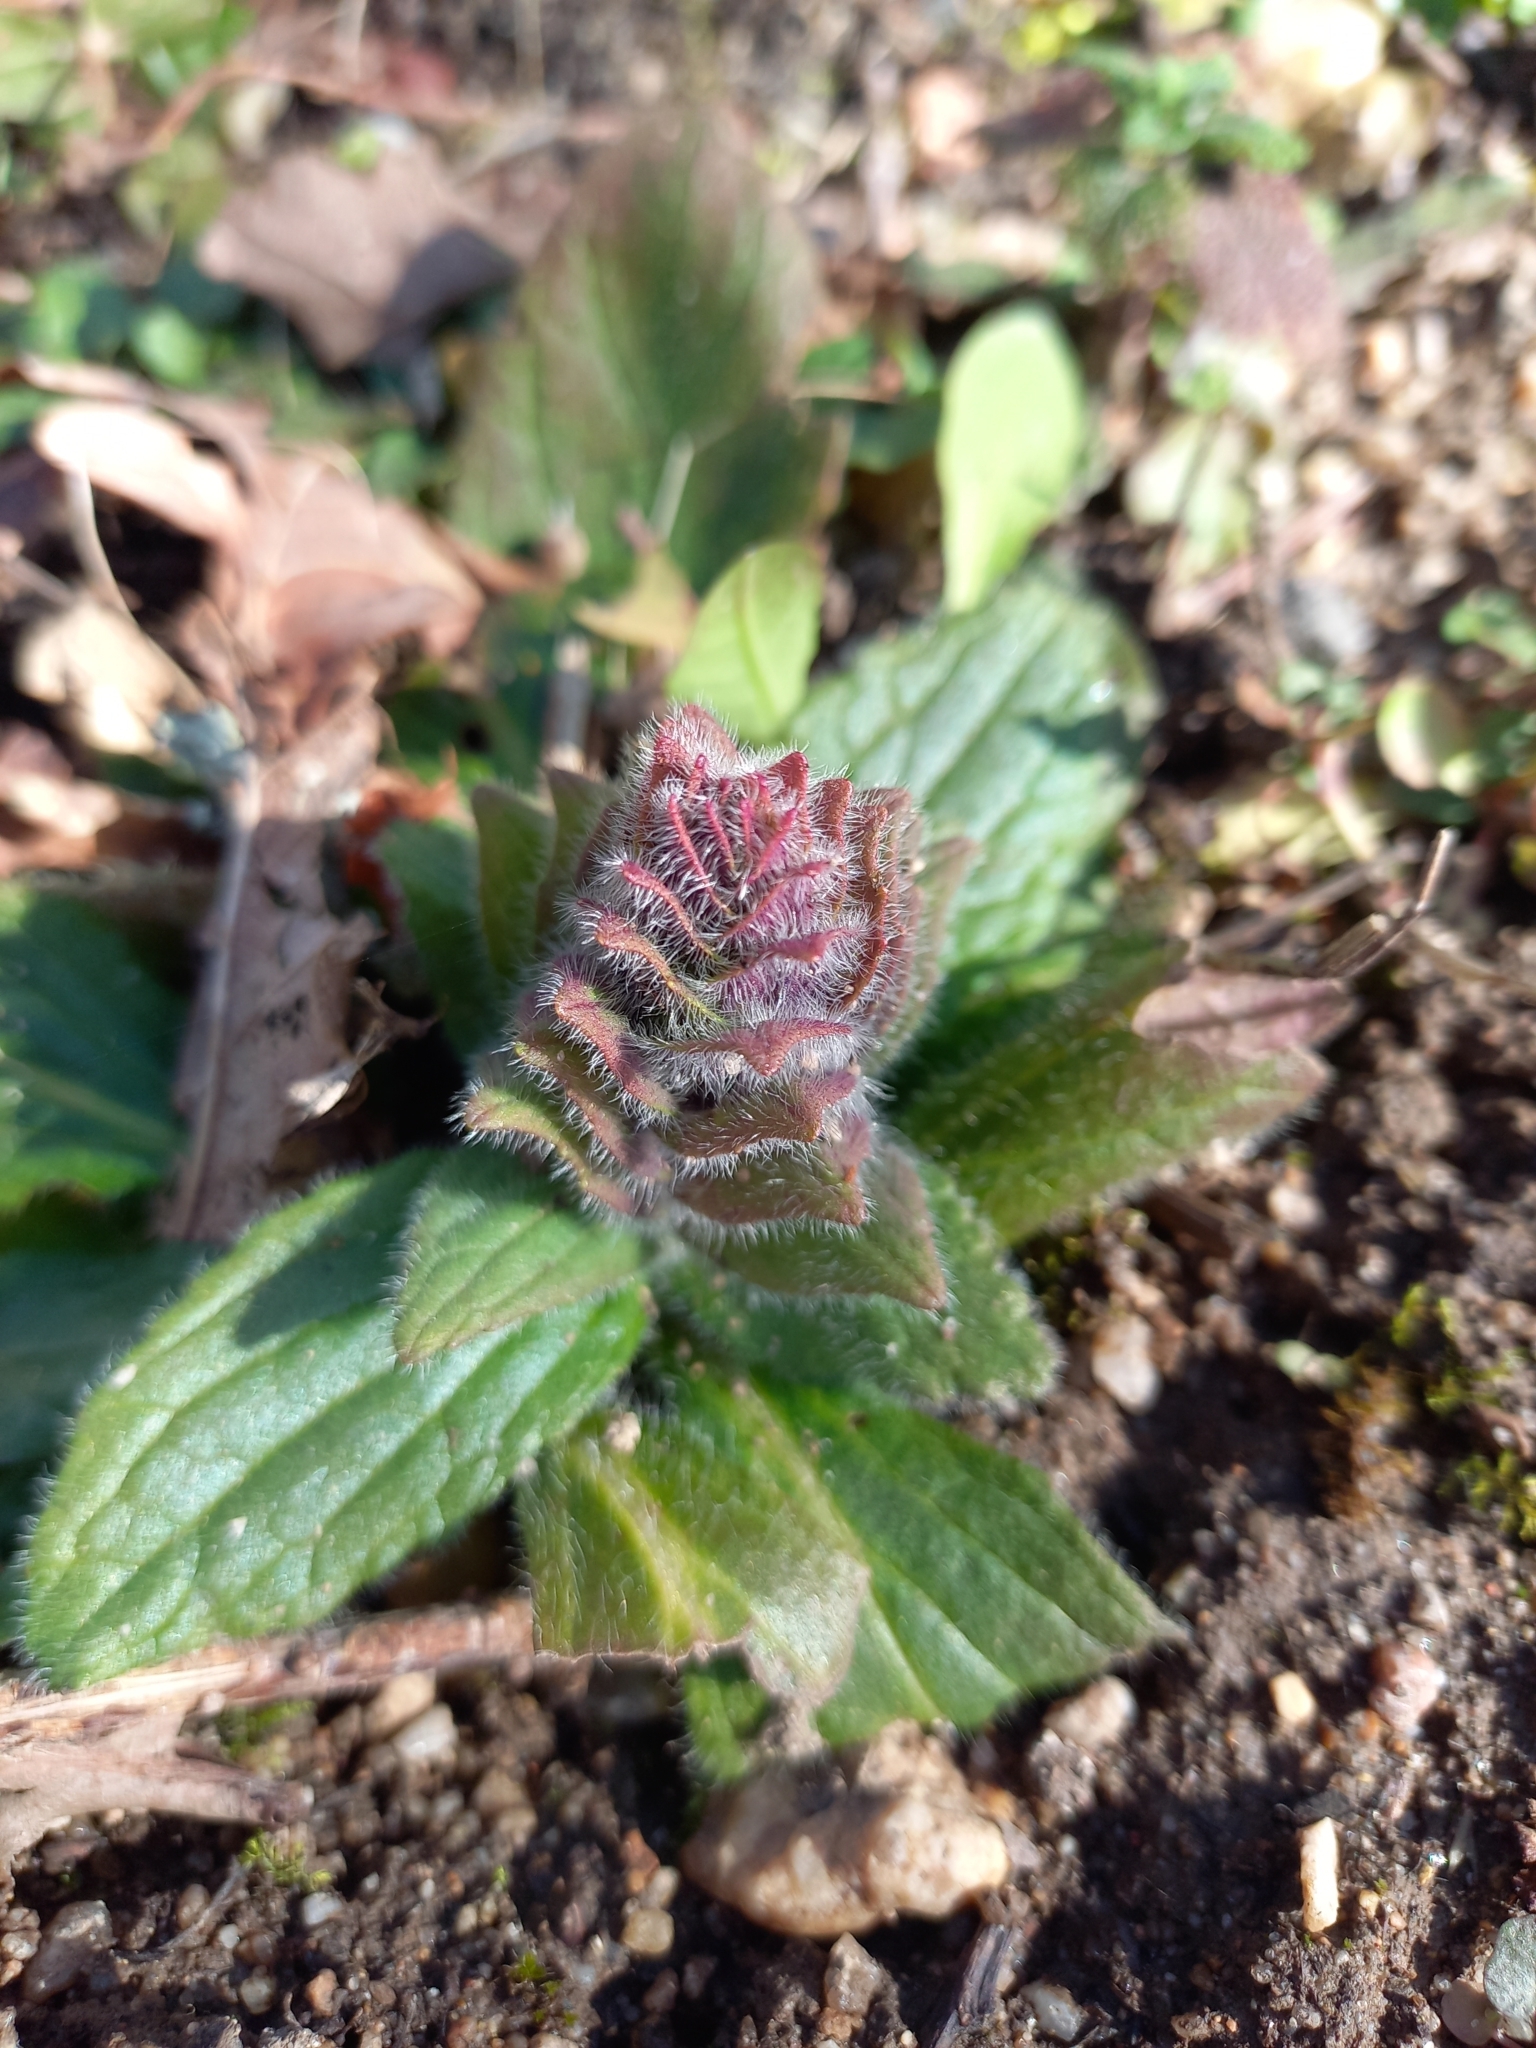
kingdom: Plantae
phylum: Tracheophyta
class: Magnoliopsida
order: Lamiales
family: Lamiaceae
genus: Ajuga
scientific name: Ajuga pyramidalis
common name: Pyramid bugle
